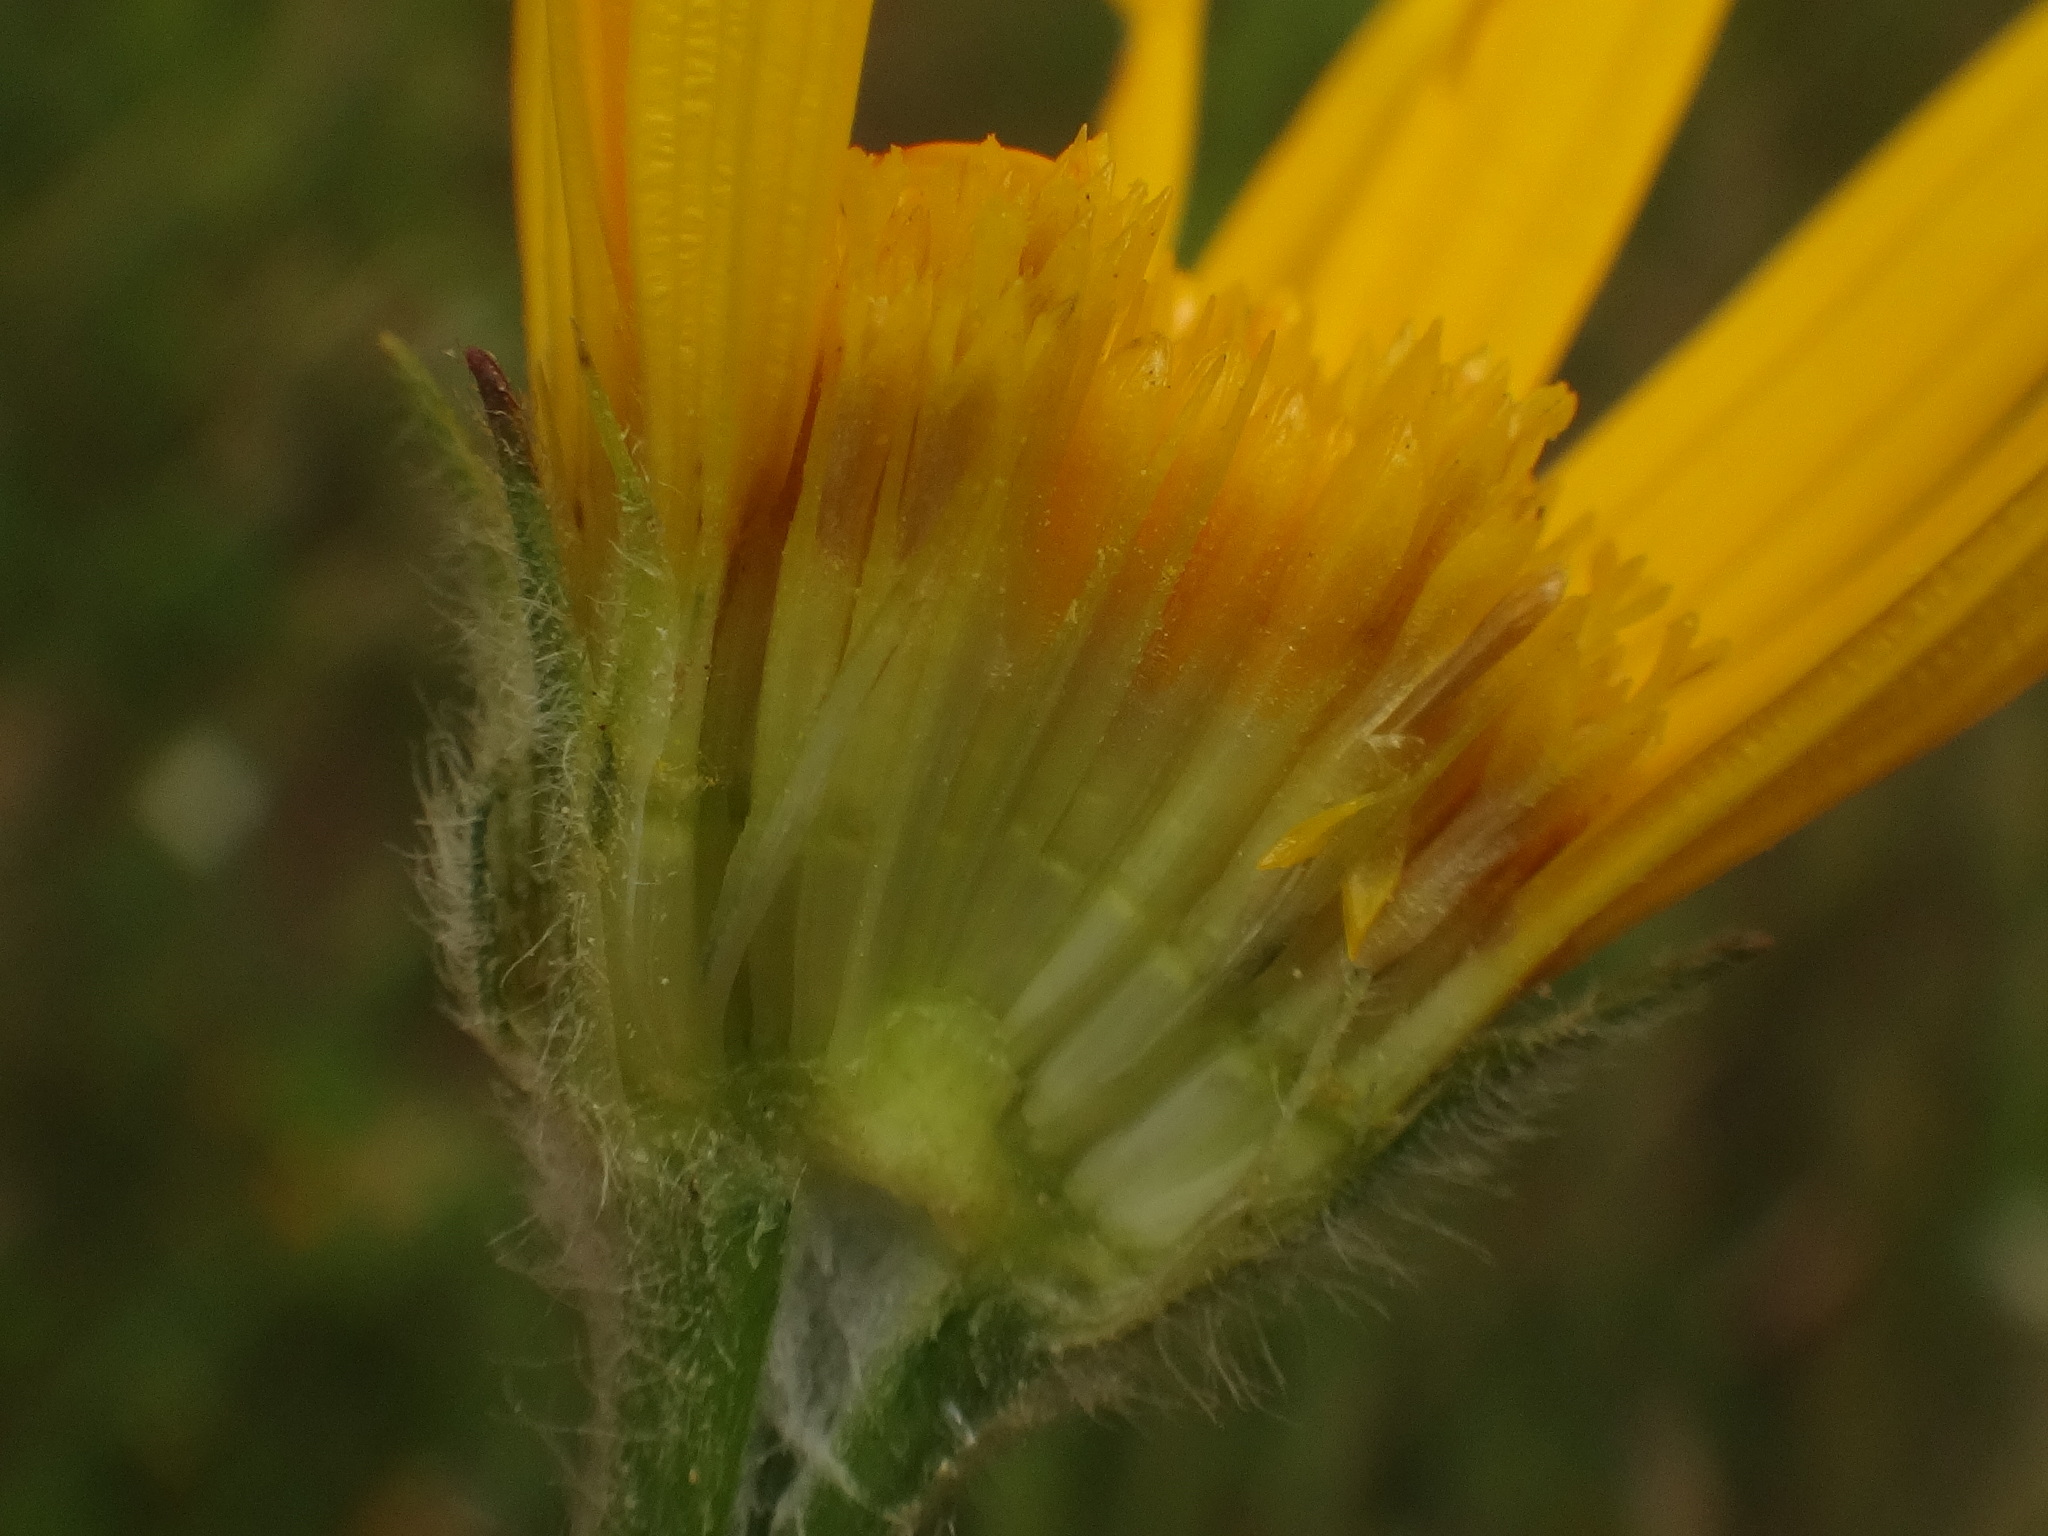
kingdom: Plantae
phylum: Tracheophyta
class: Magnoliopsida
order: Asterales
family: Asteraceae
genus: Buphthalmum
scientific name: Buphthalmum salicifolium
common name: Willow-leaved yellow-oxeye
